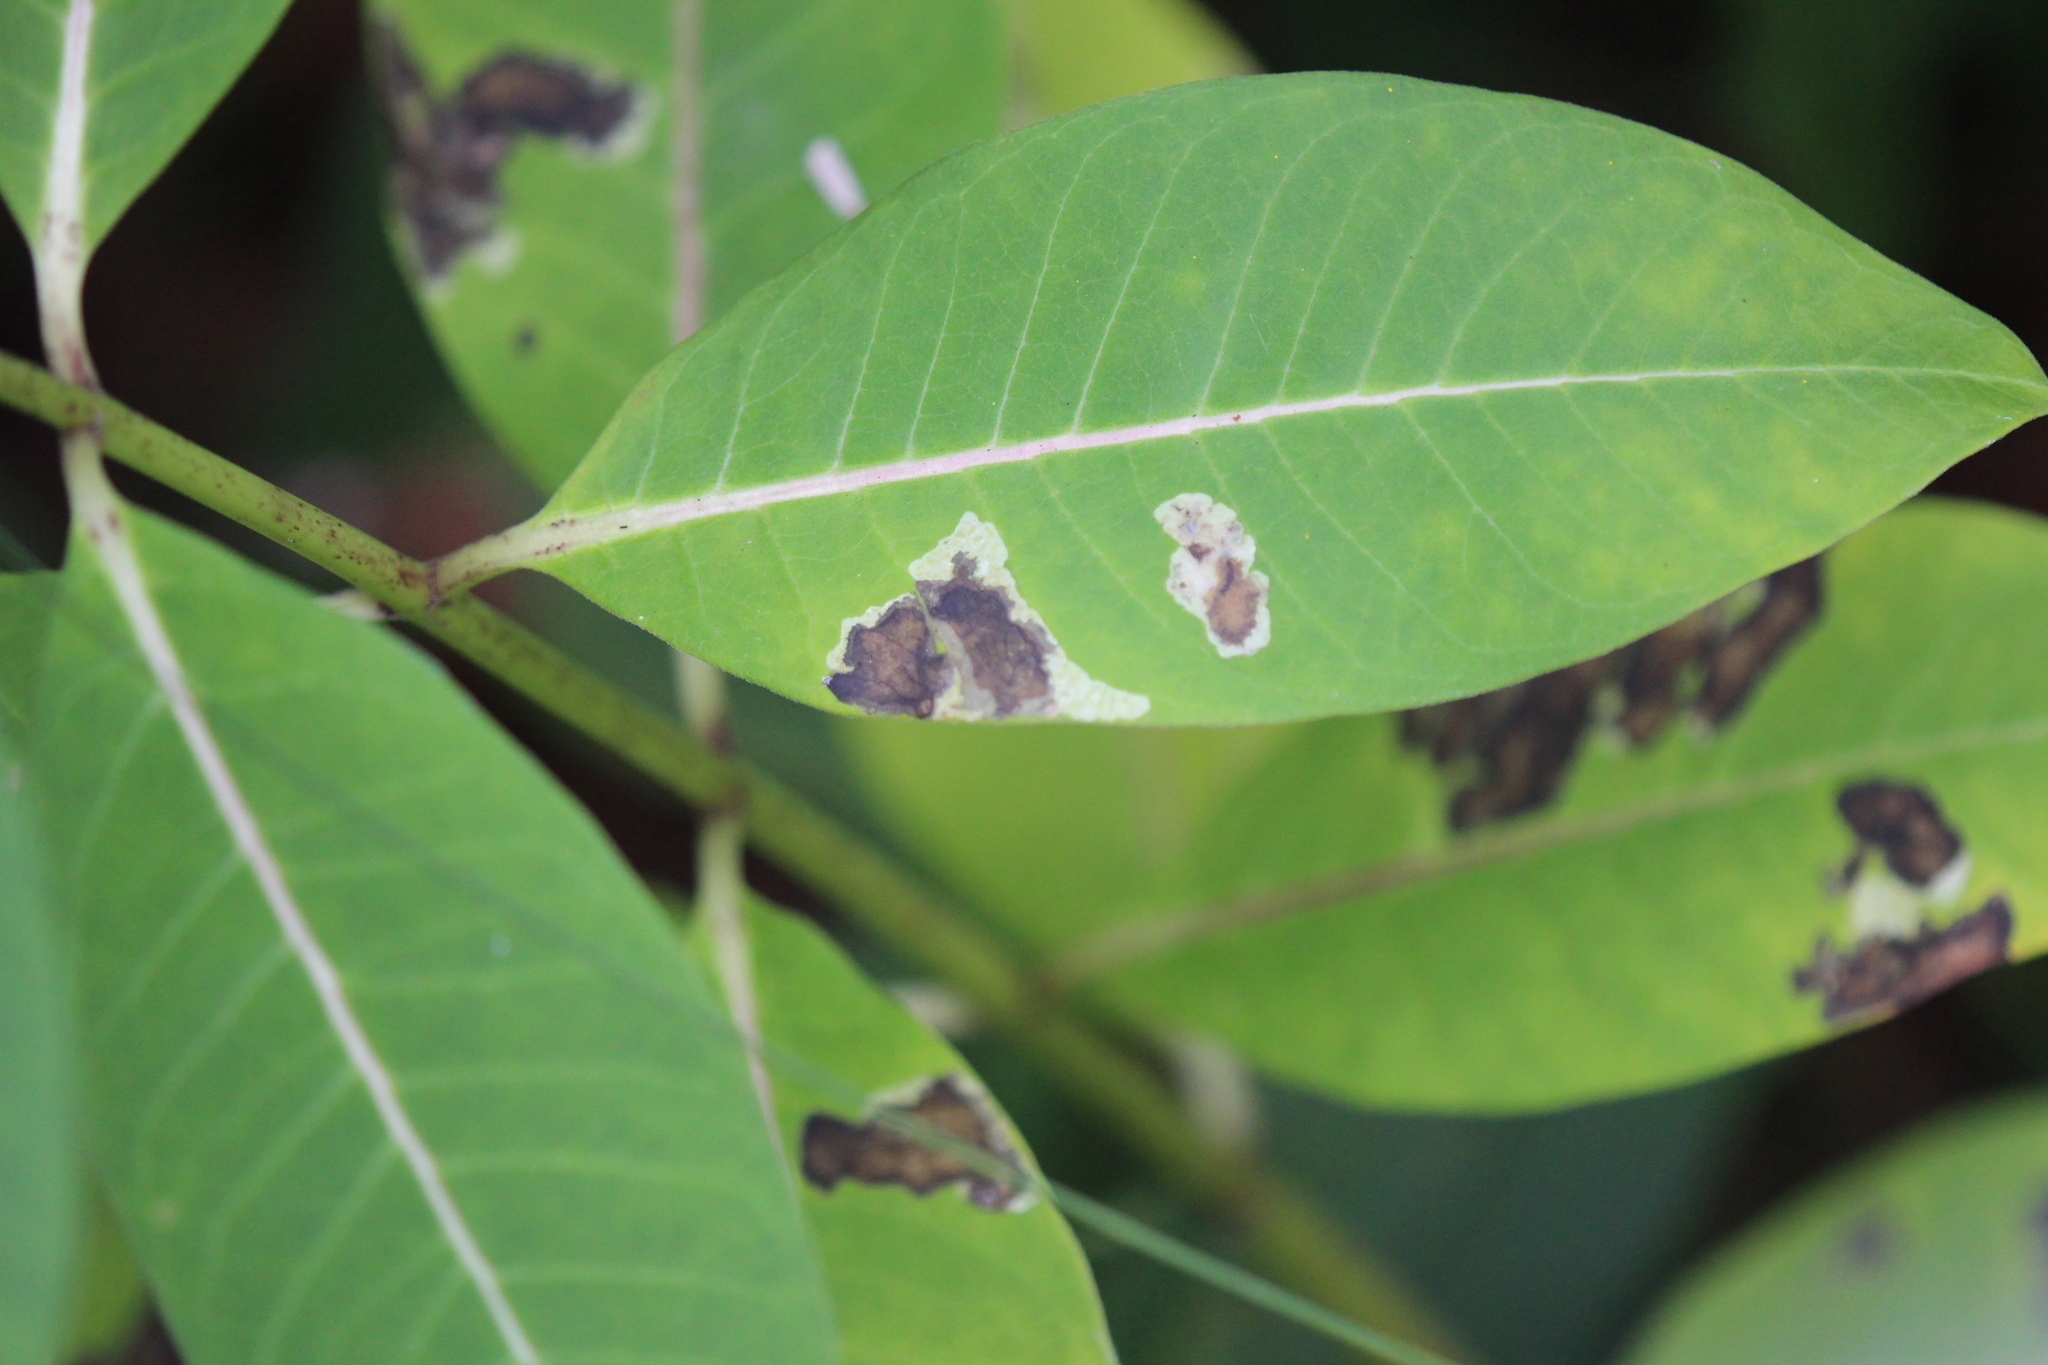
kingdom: Plantae
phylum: Tracheophyta
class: Magnoliopsida
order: Gentianales
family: Apocynaceae
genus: Asclepias
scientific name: Asclepias syriaca
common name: Common milkweed
